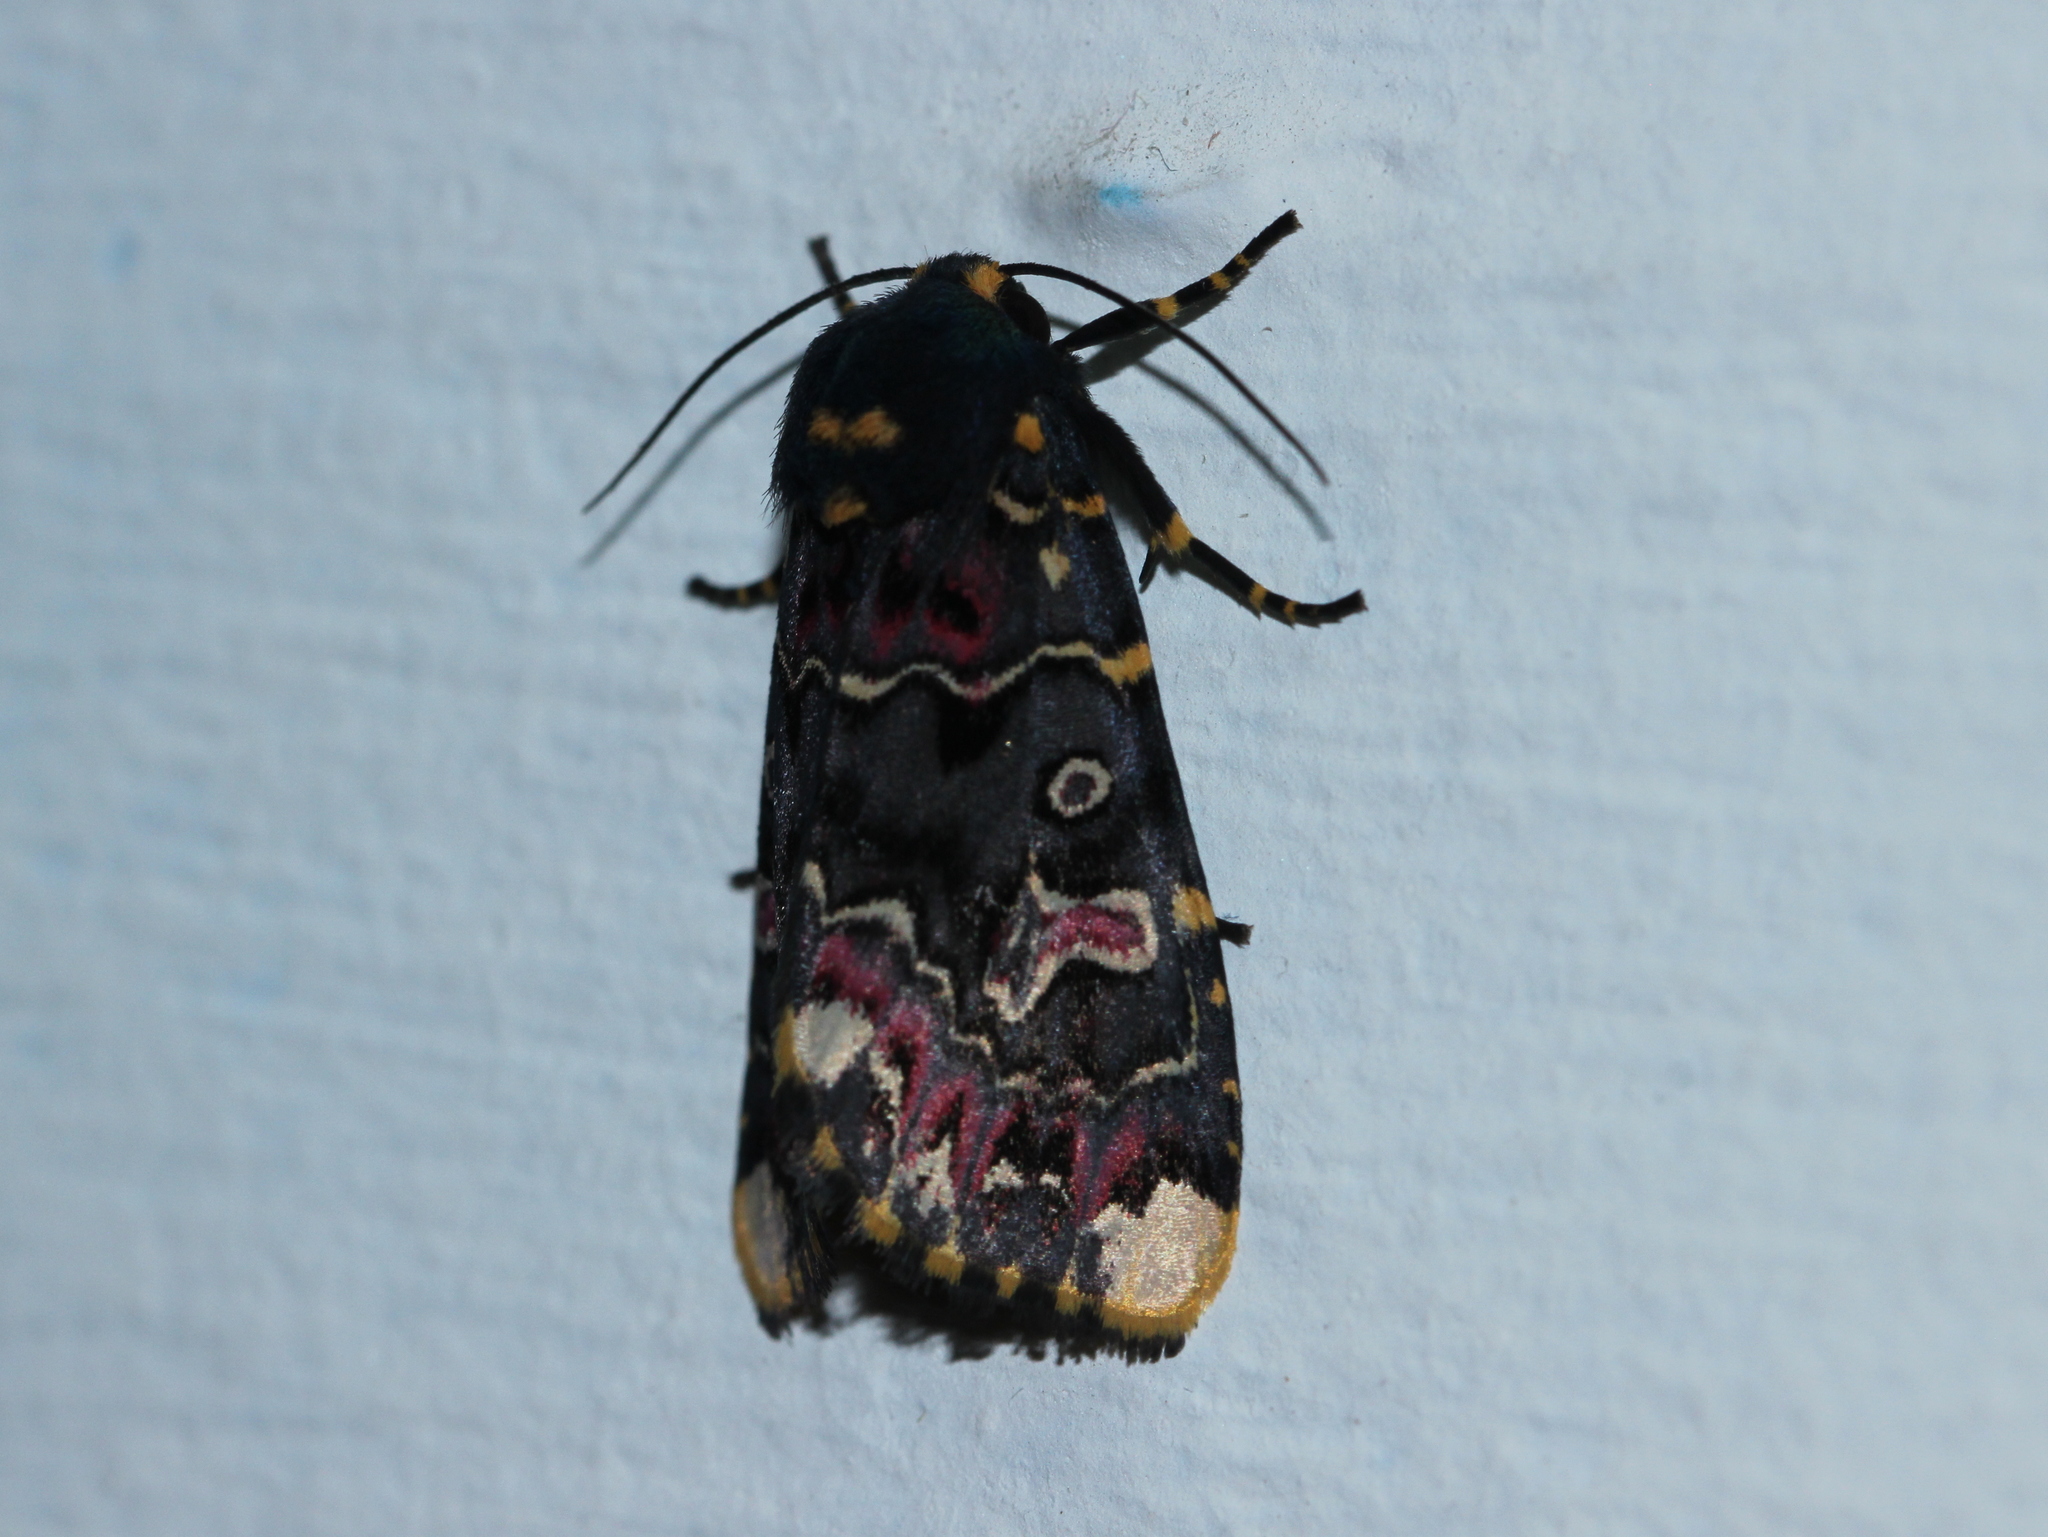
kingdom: Animalia
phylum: Arthropoda
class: Insecta
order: Lepidoptera
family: Noctuidae
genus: Polytela
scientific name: Polytela gloriosae
